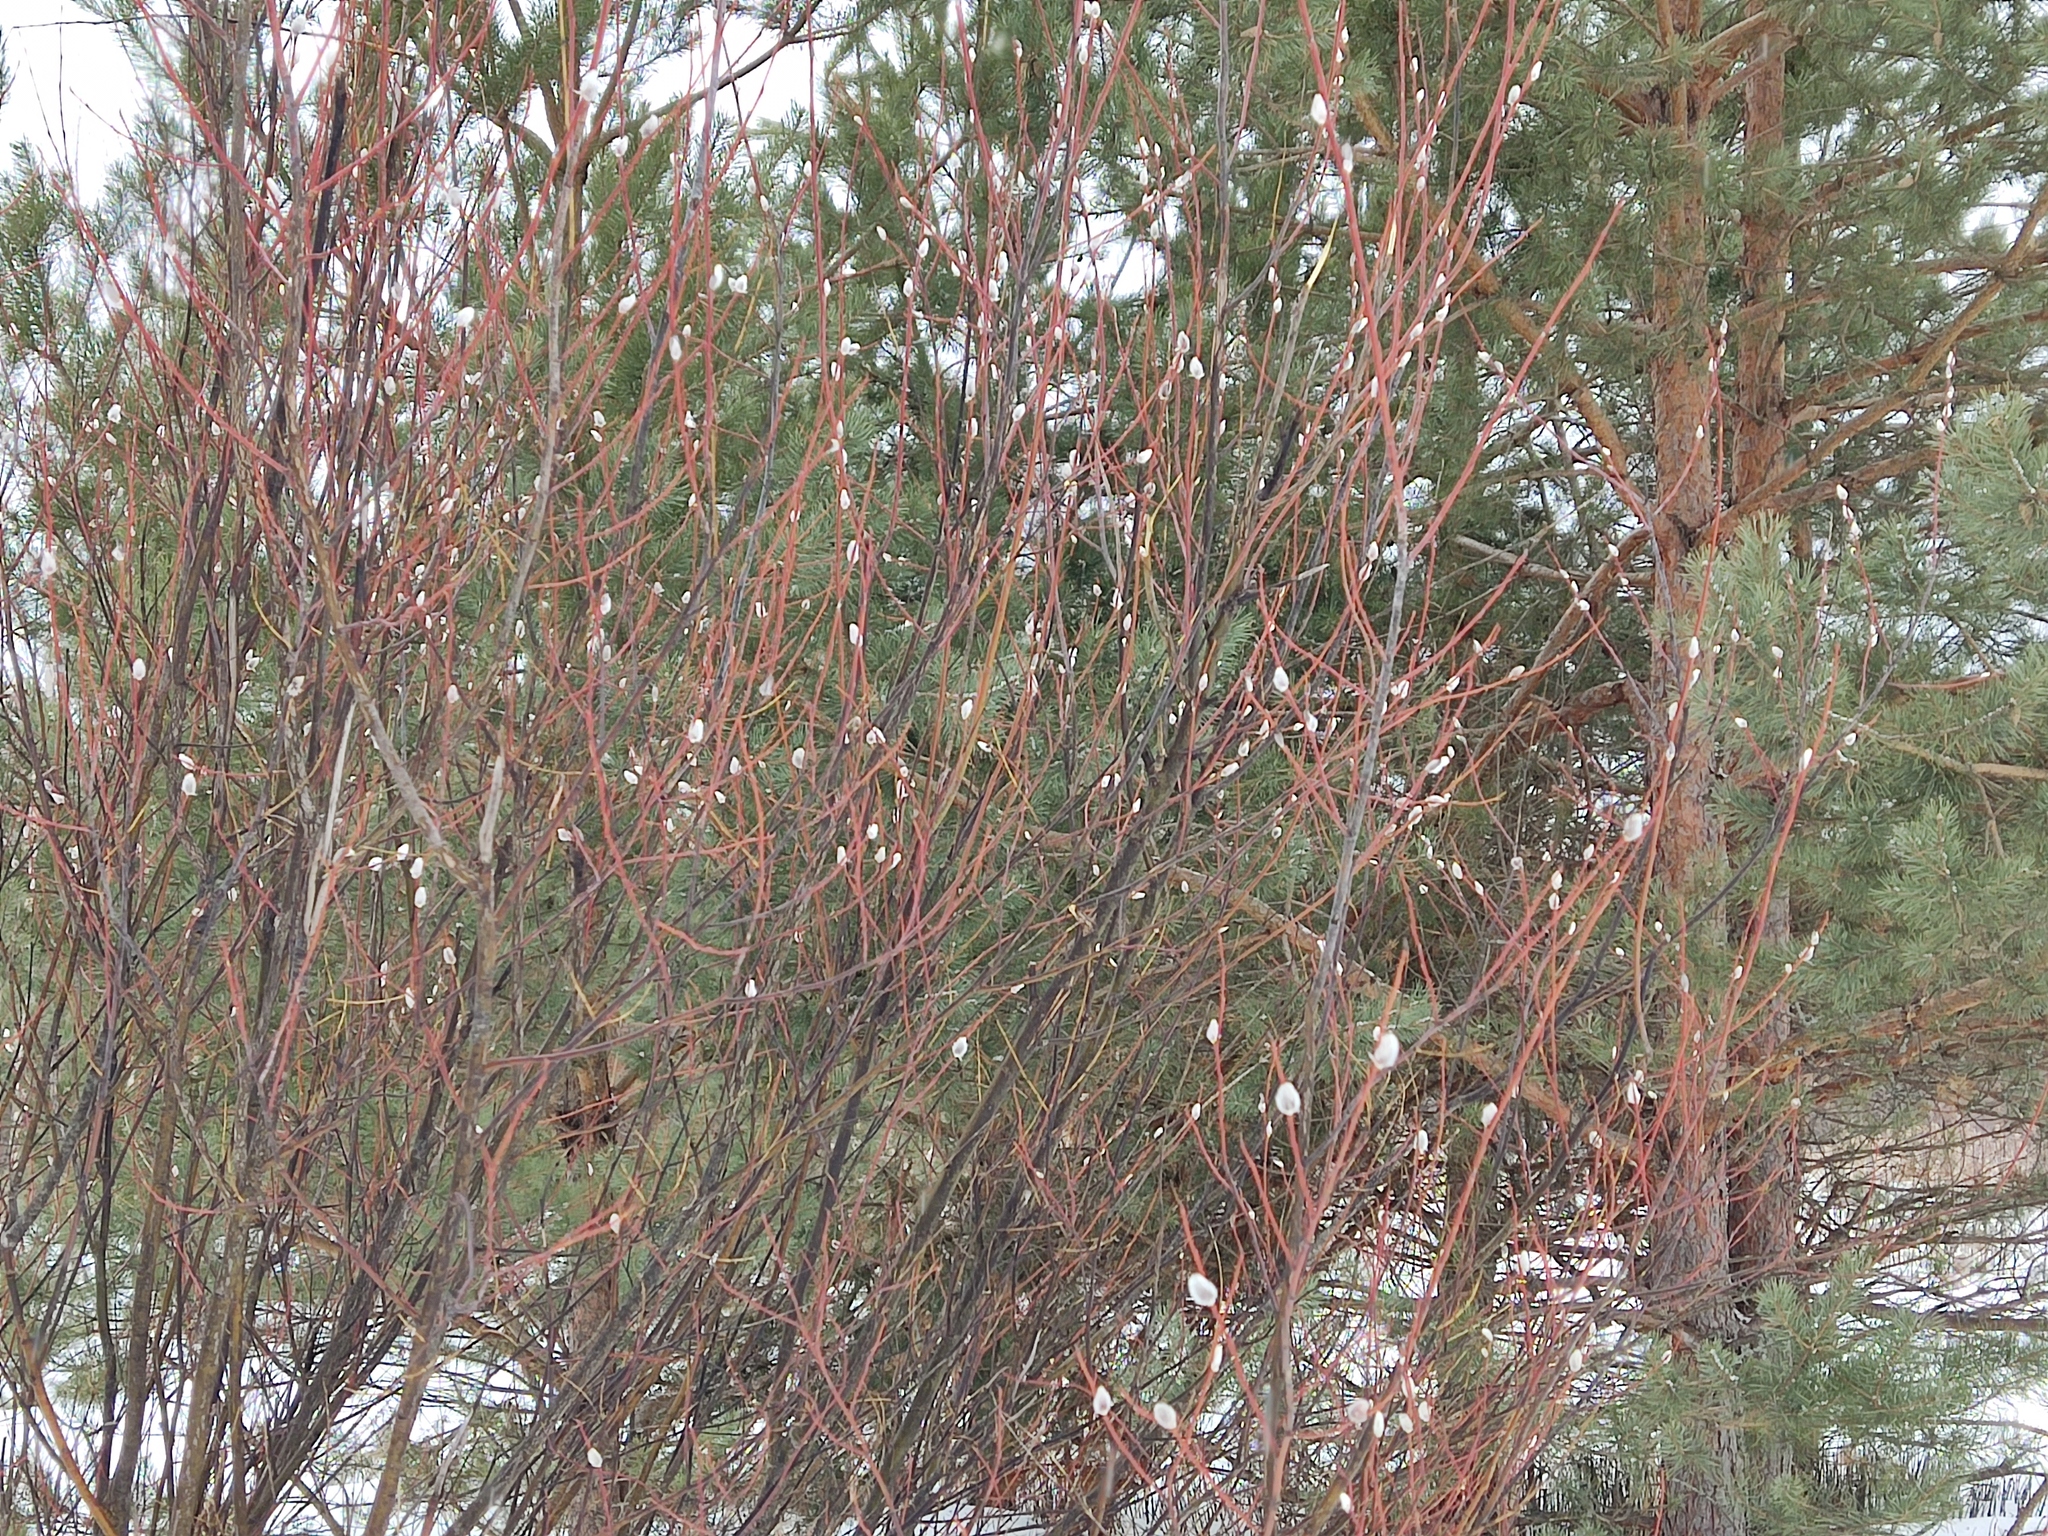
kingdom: Plantae
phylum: Tracheophyta
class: Magnoliopsida
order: Malpighiales
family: Salicaceae
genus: Salix
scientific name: Salix acutifolia
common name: Siberian violet-willow
